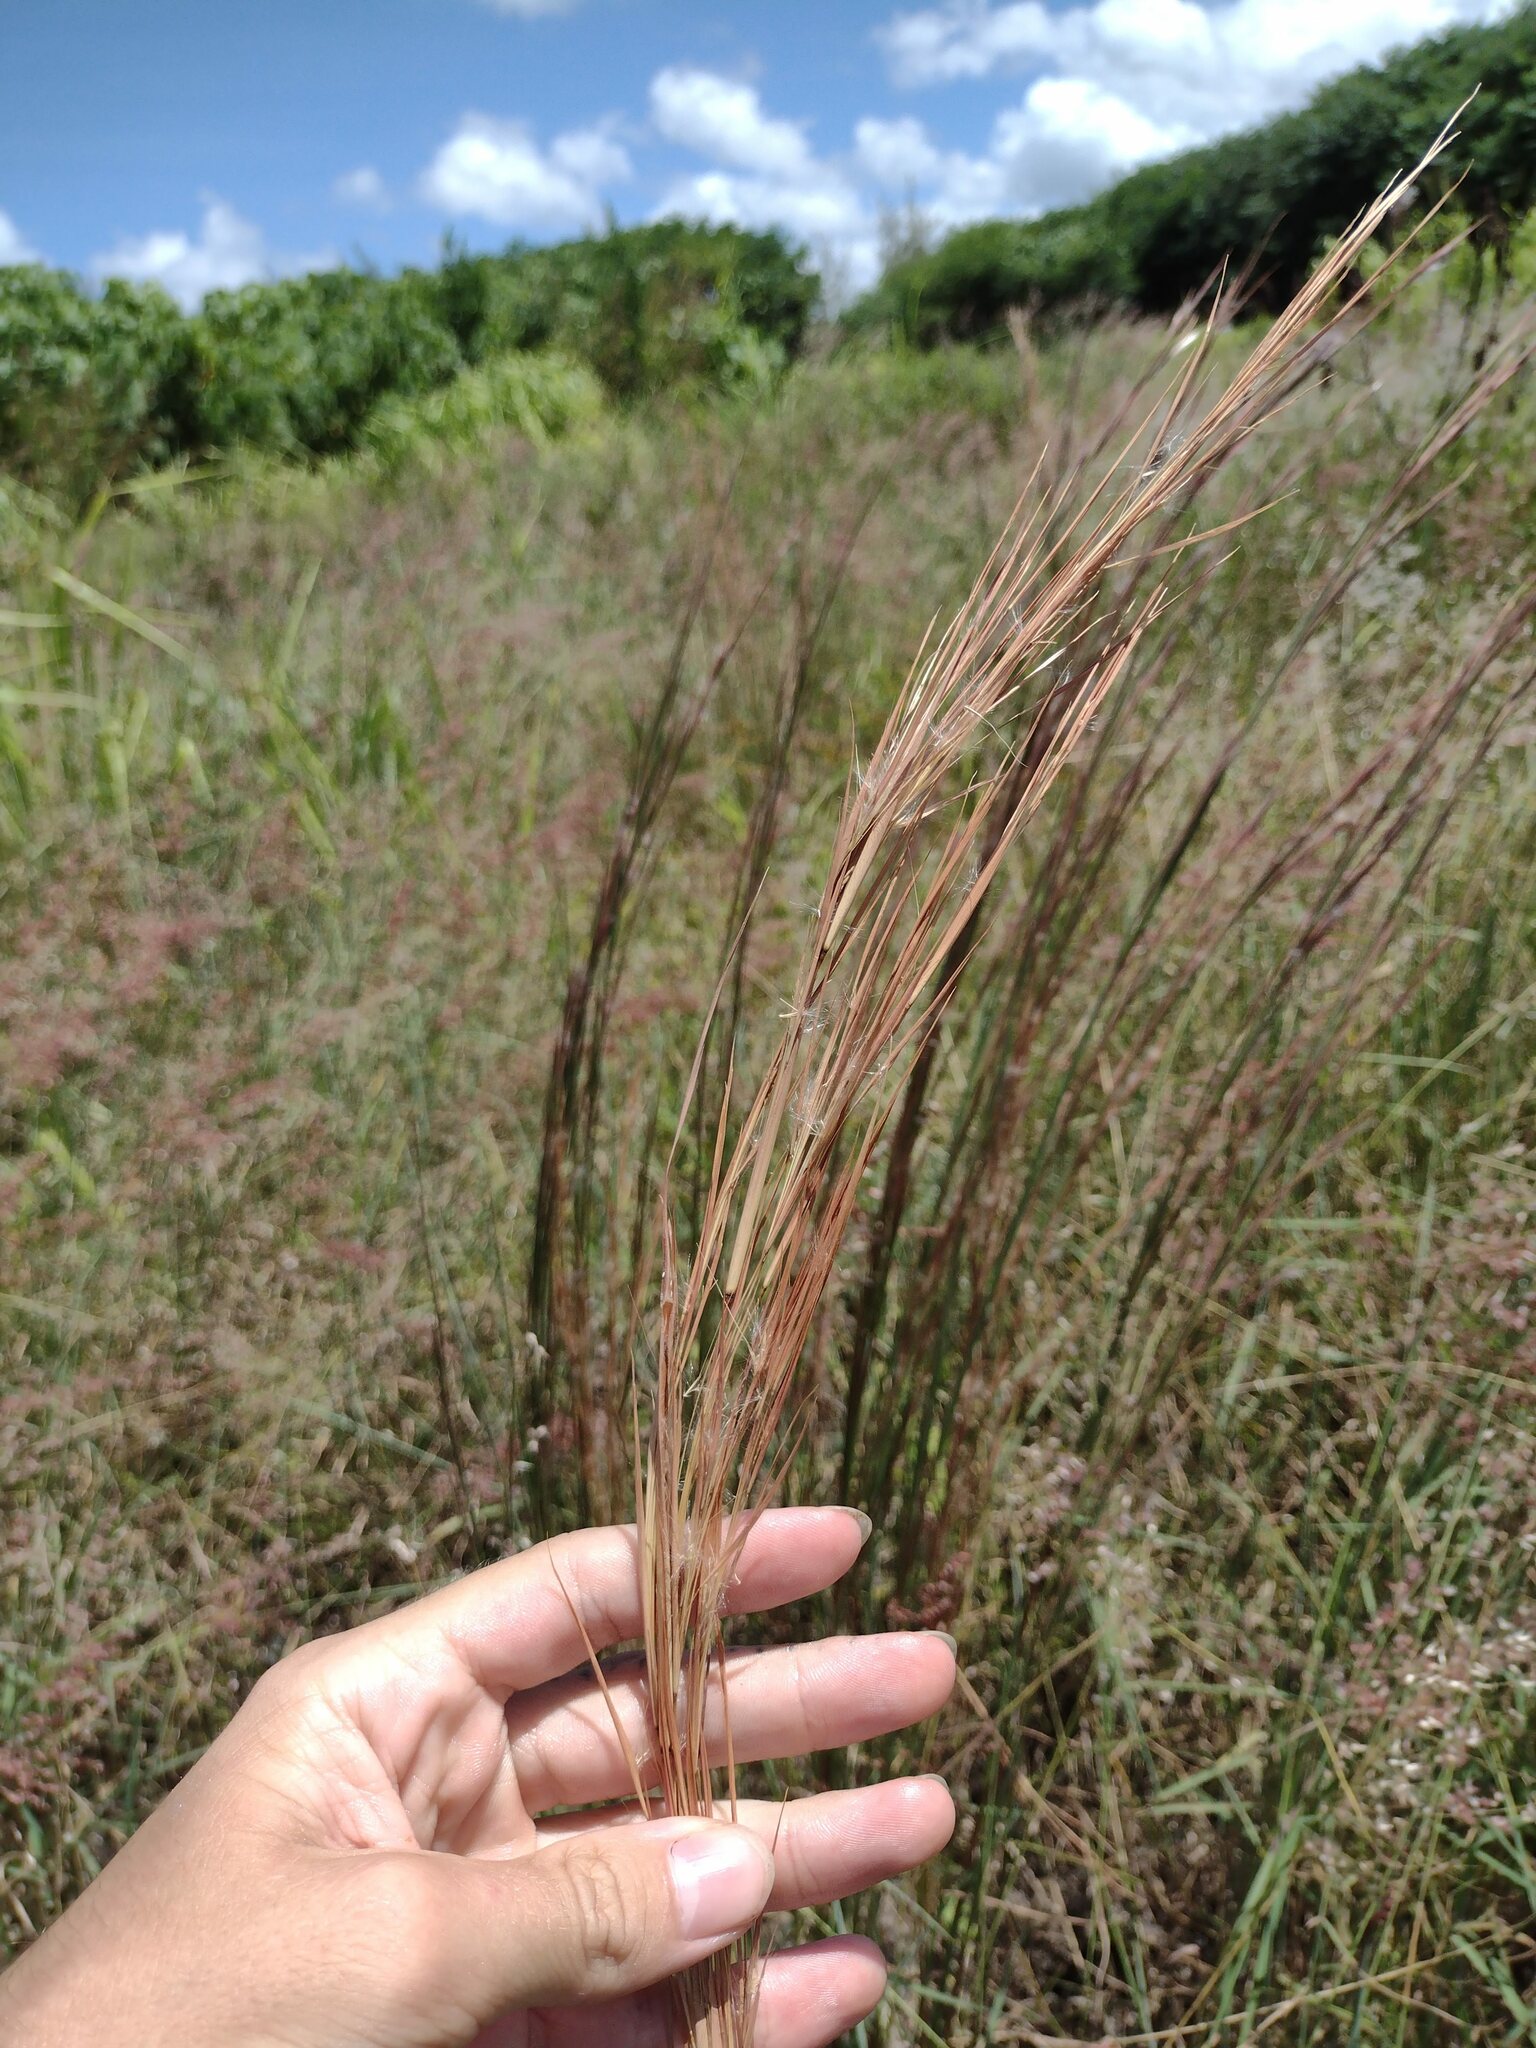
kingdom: Plantae
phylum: Tracheophyta
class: Liliopsida
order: Poales
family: Poaceae
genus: Andropogon
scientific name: Andropogon virginicus
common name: Broomsedge bluestem
